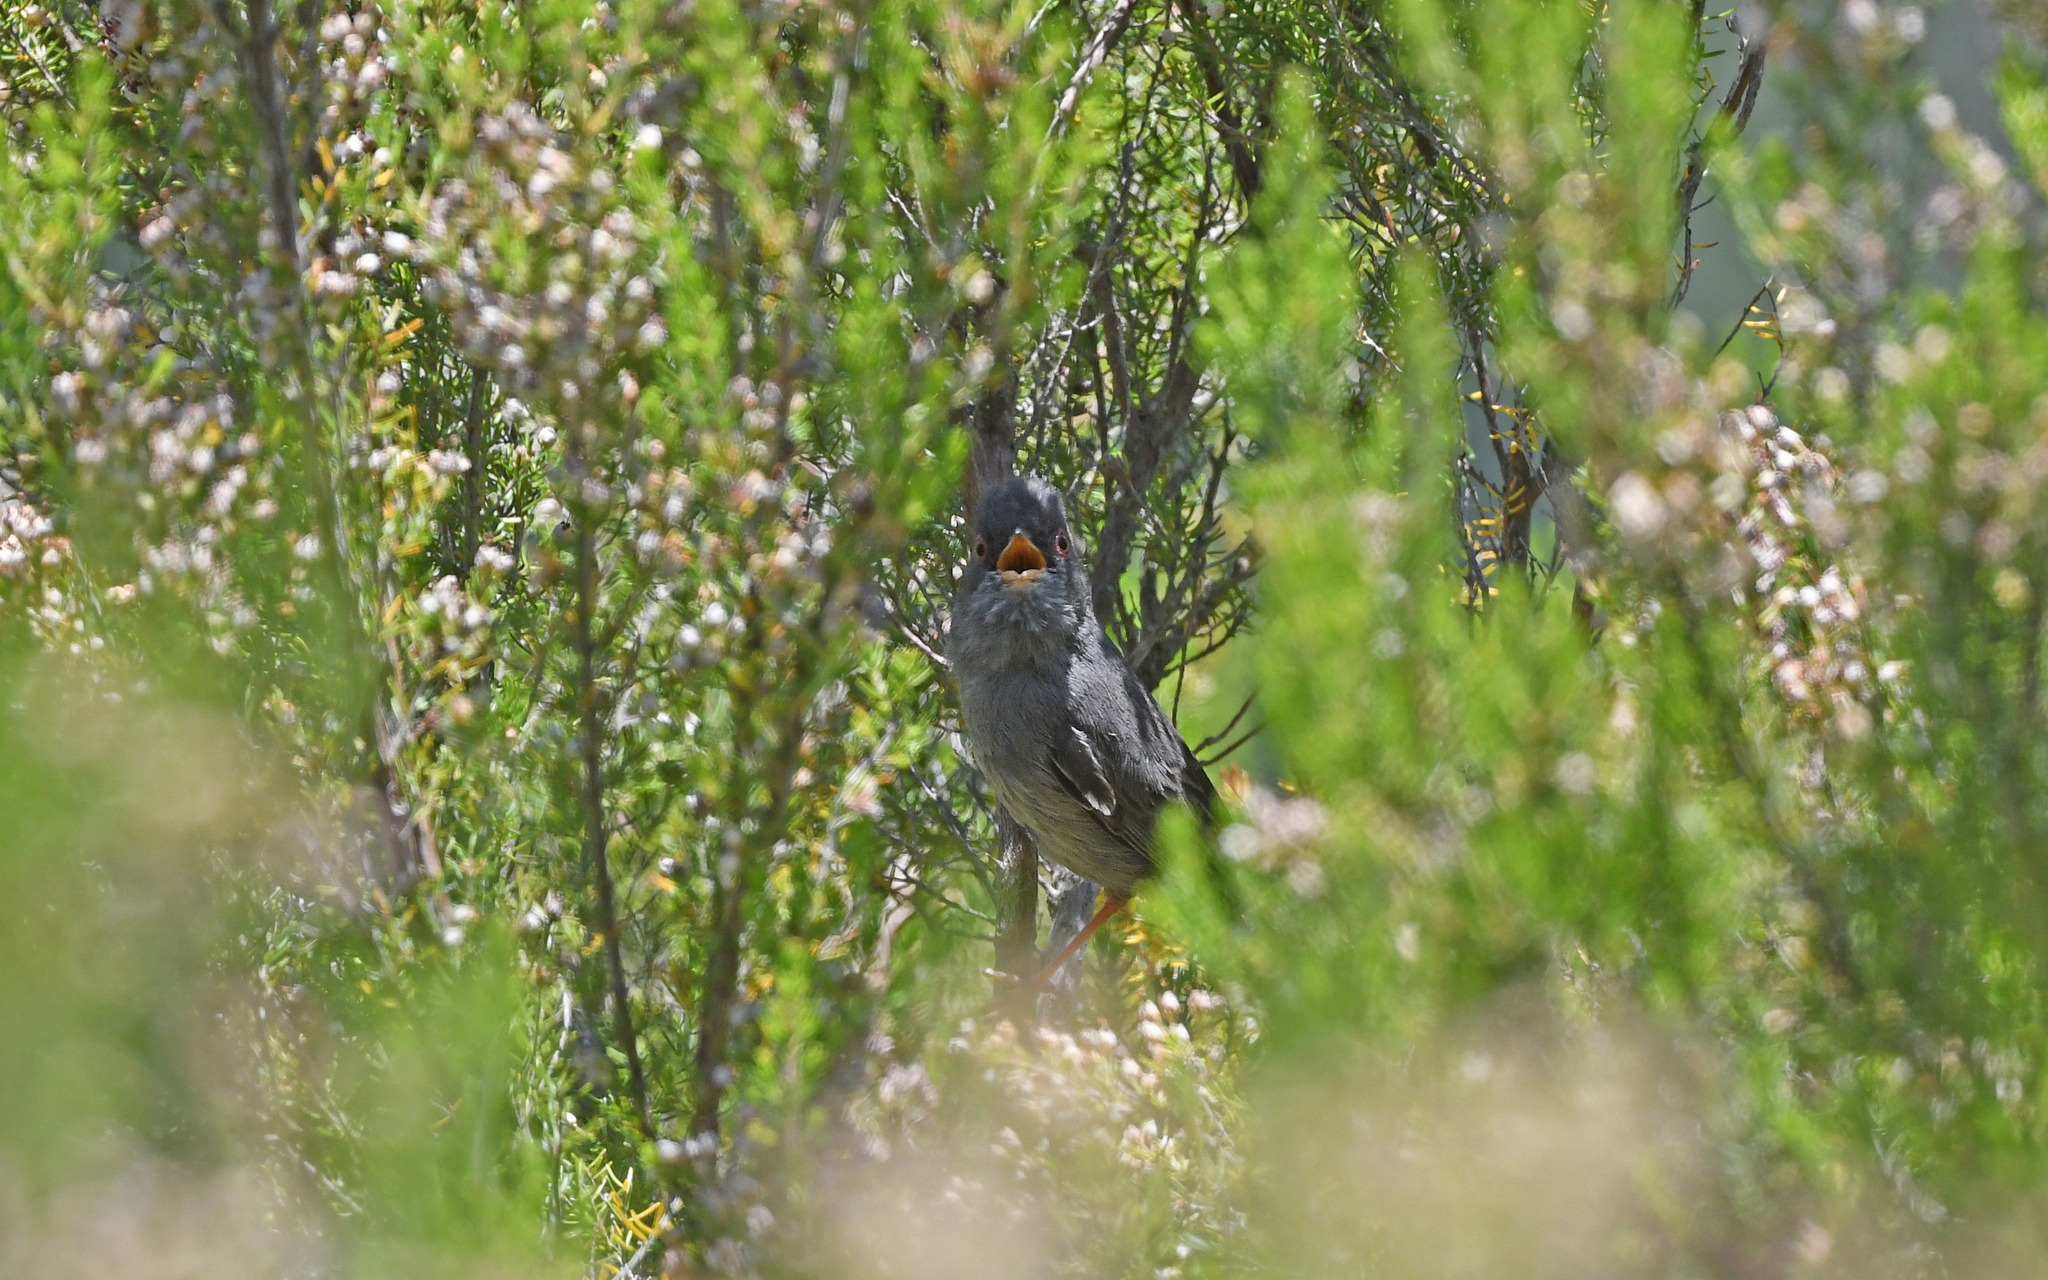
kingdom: Animalia
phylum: Chordata
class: Aves
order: Passeriformes
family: Sylviidae
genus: Sylvia
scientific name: Sylvia sarda
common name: Marmora's warbler
